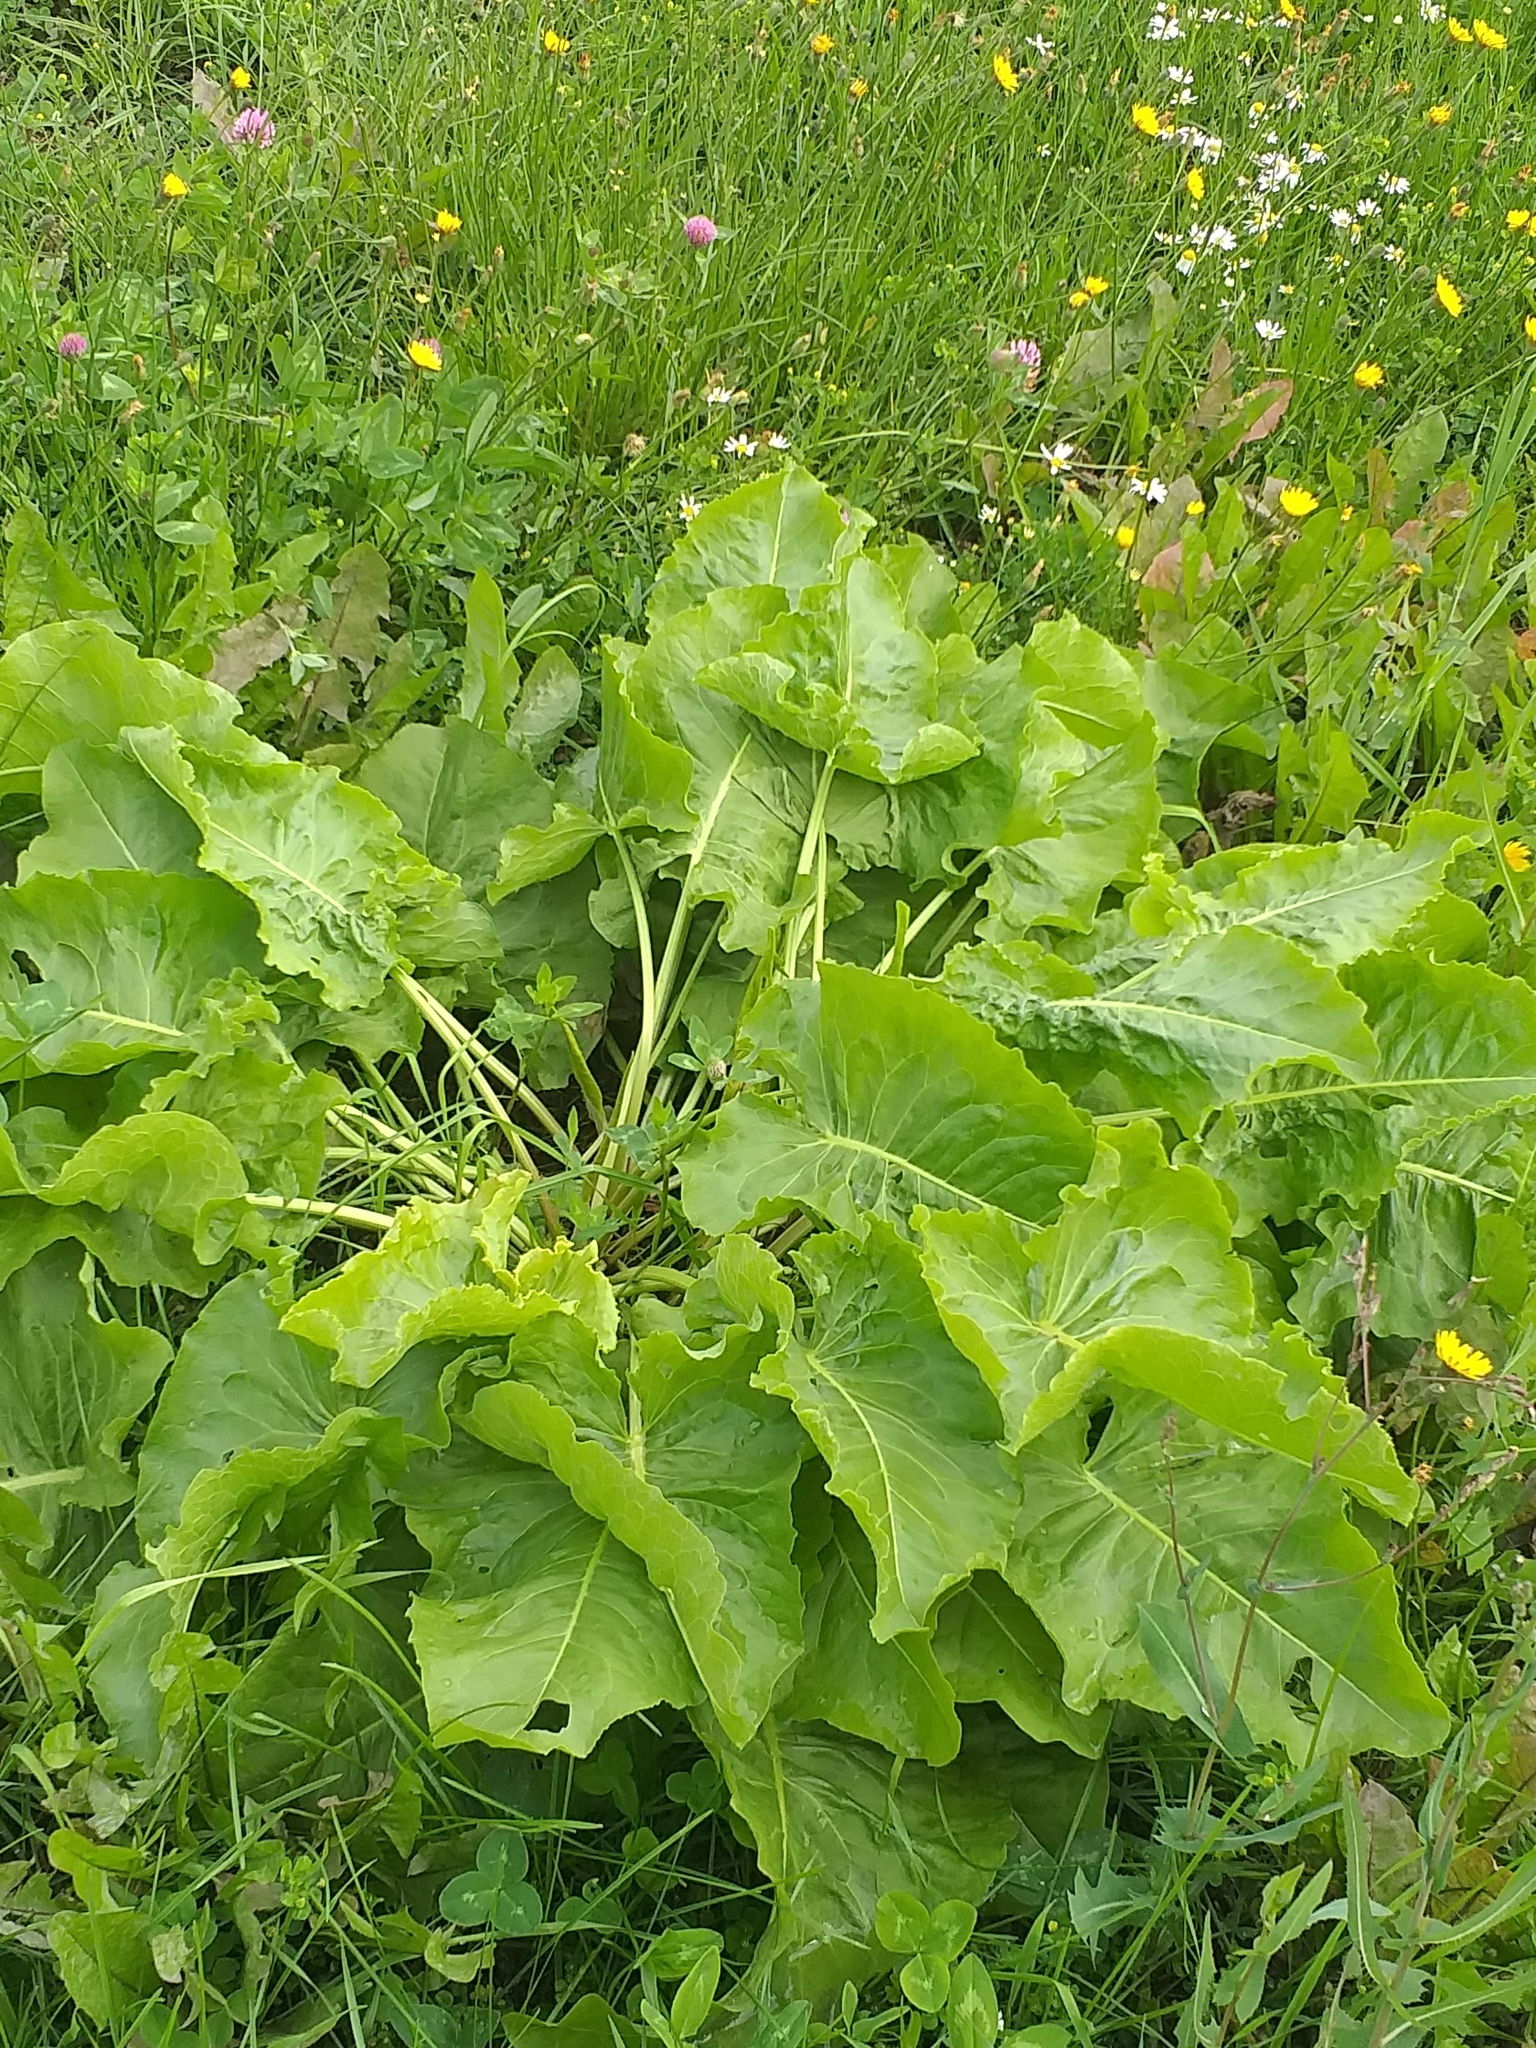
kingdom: Plantae
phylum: Tracheophyta
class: Magnoliopsida
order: Caryophyllales
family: Polygonaceae
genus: Rumex
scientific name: Rumex confertus
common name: Russian dock
